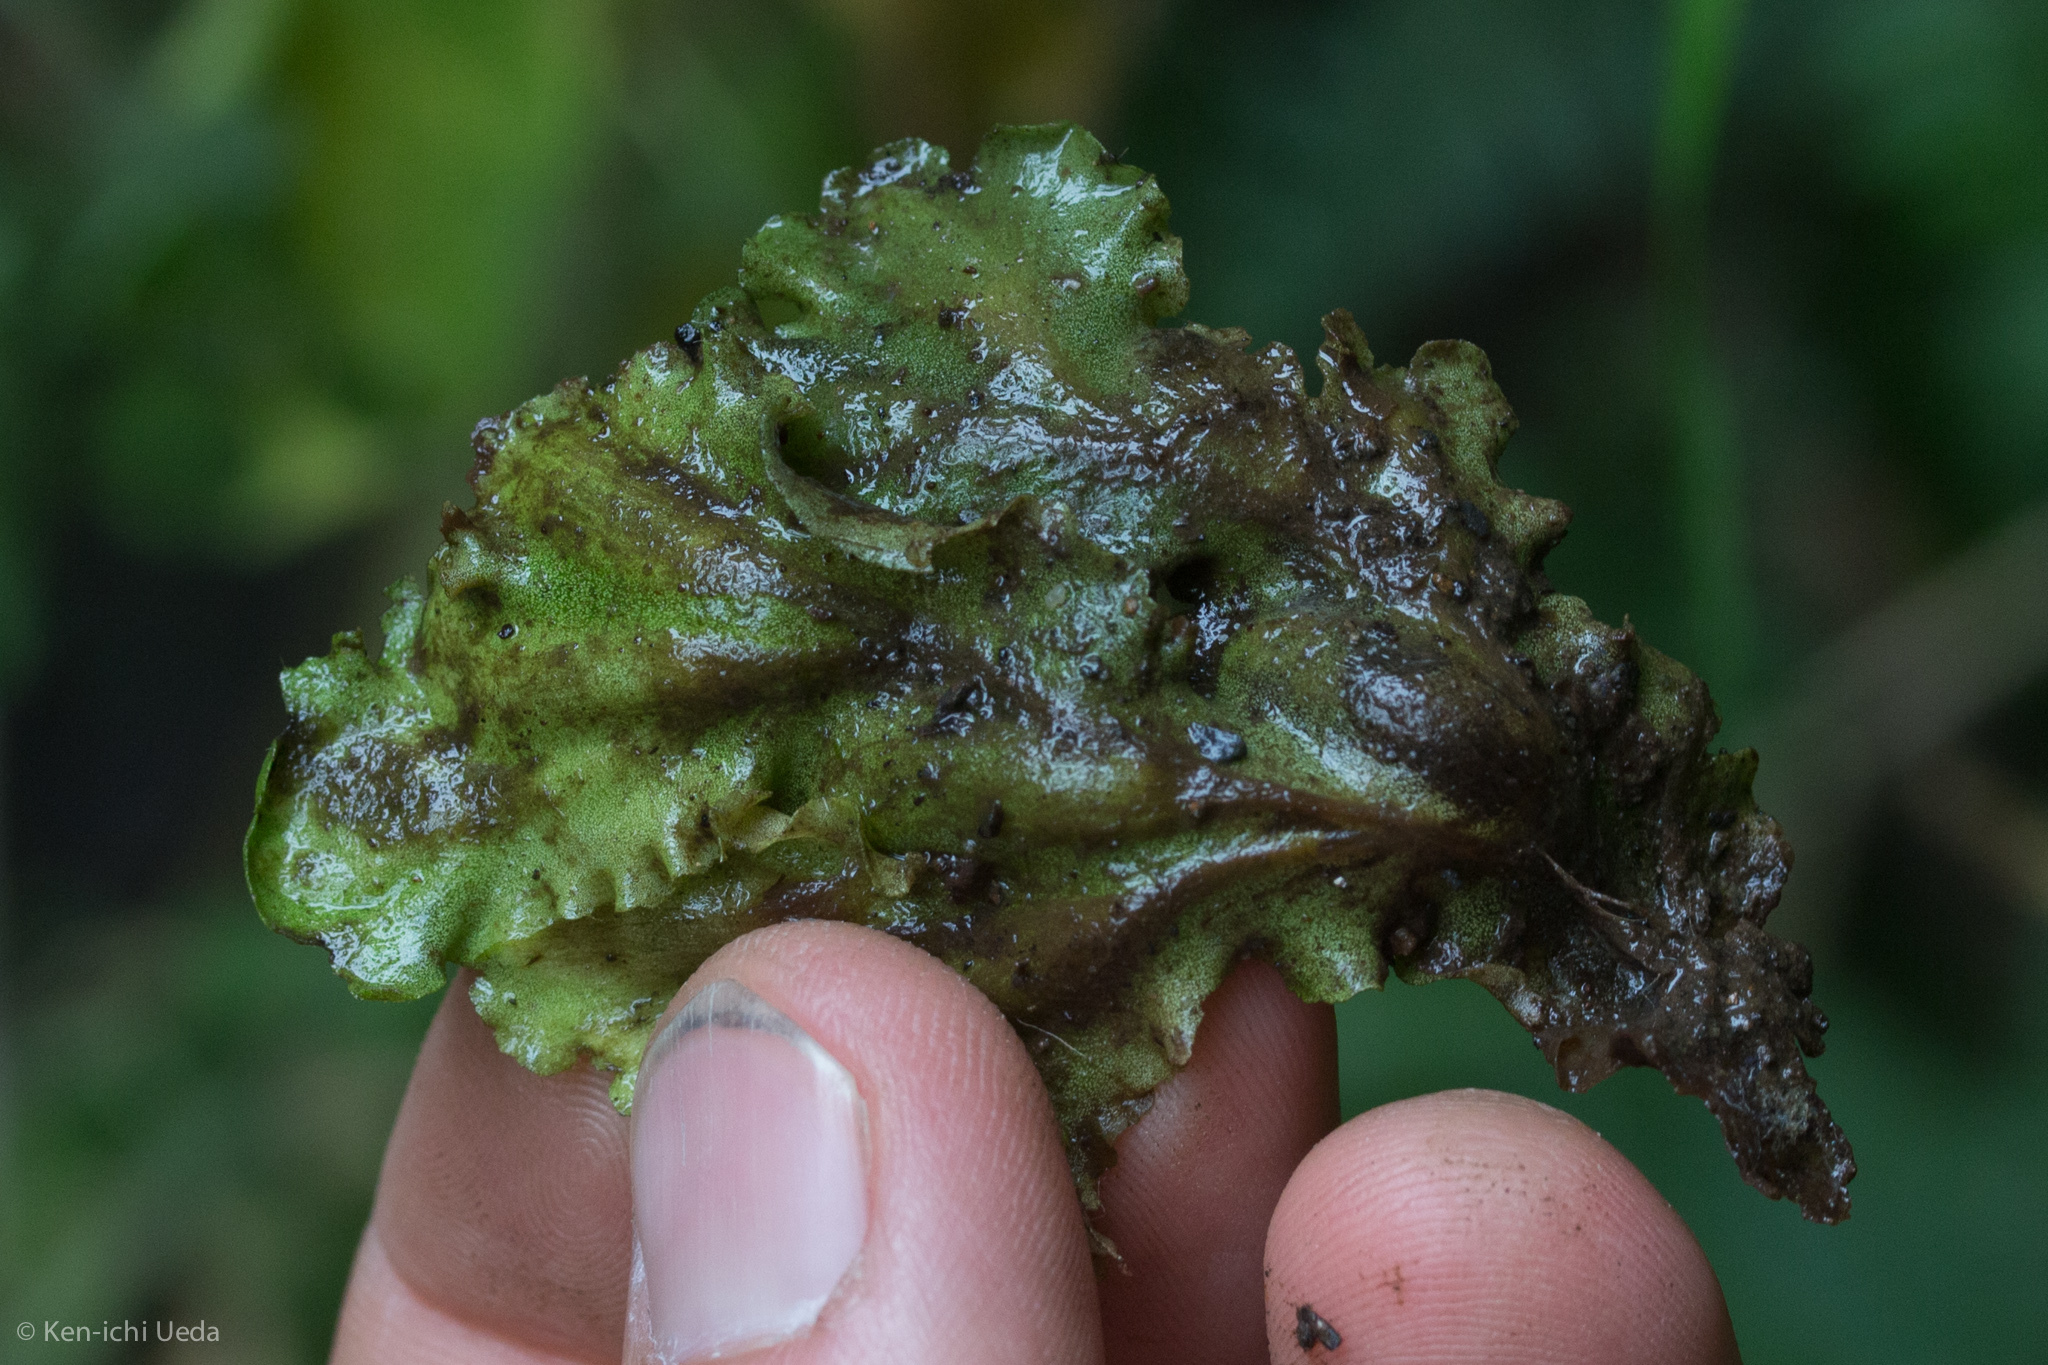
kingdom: Plantae
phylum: Marchantiophyta
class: Marchantiopsida
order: Marchantiales
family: Monocleaceae
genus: Monoclea
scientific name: Monoclea gottschei
